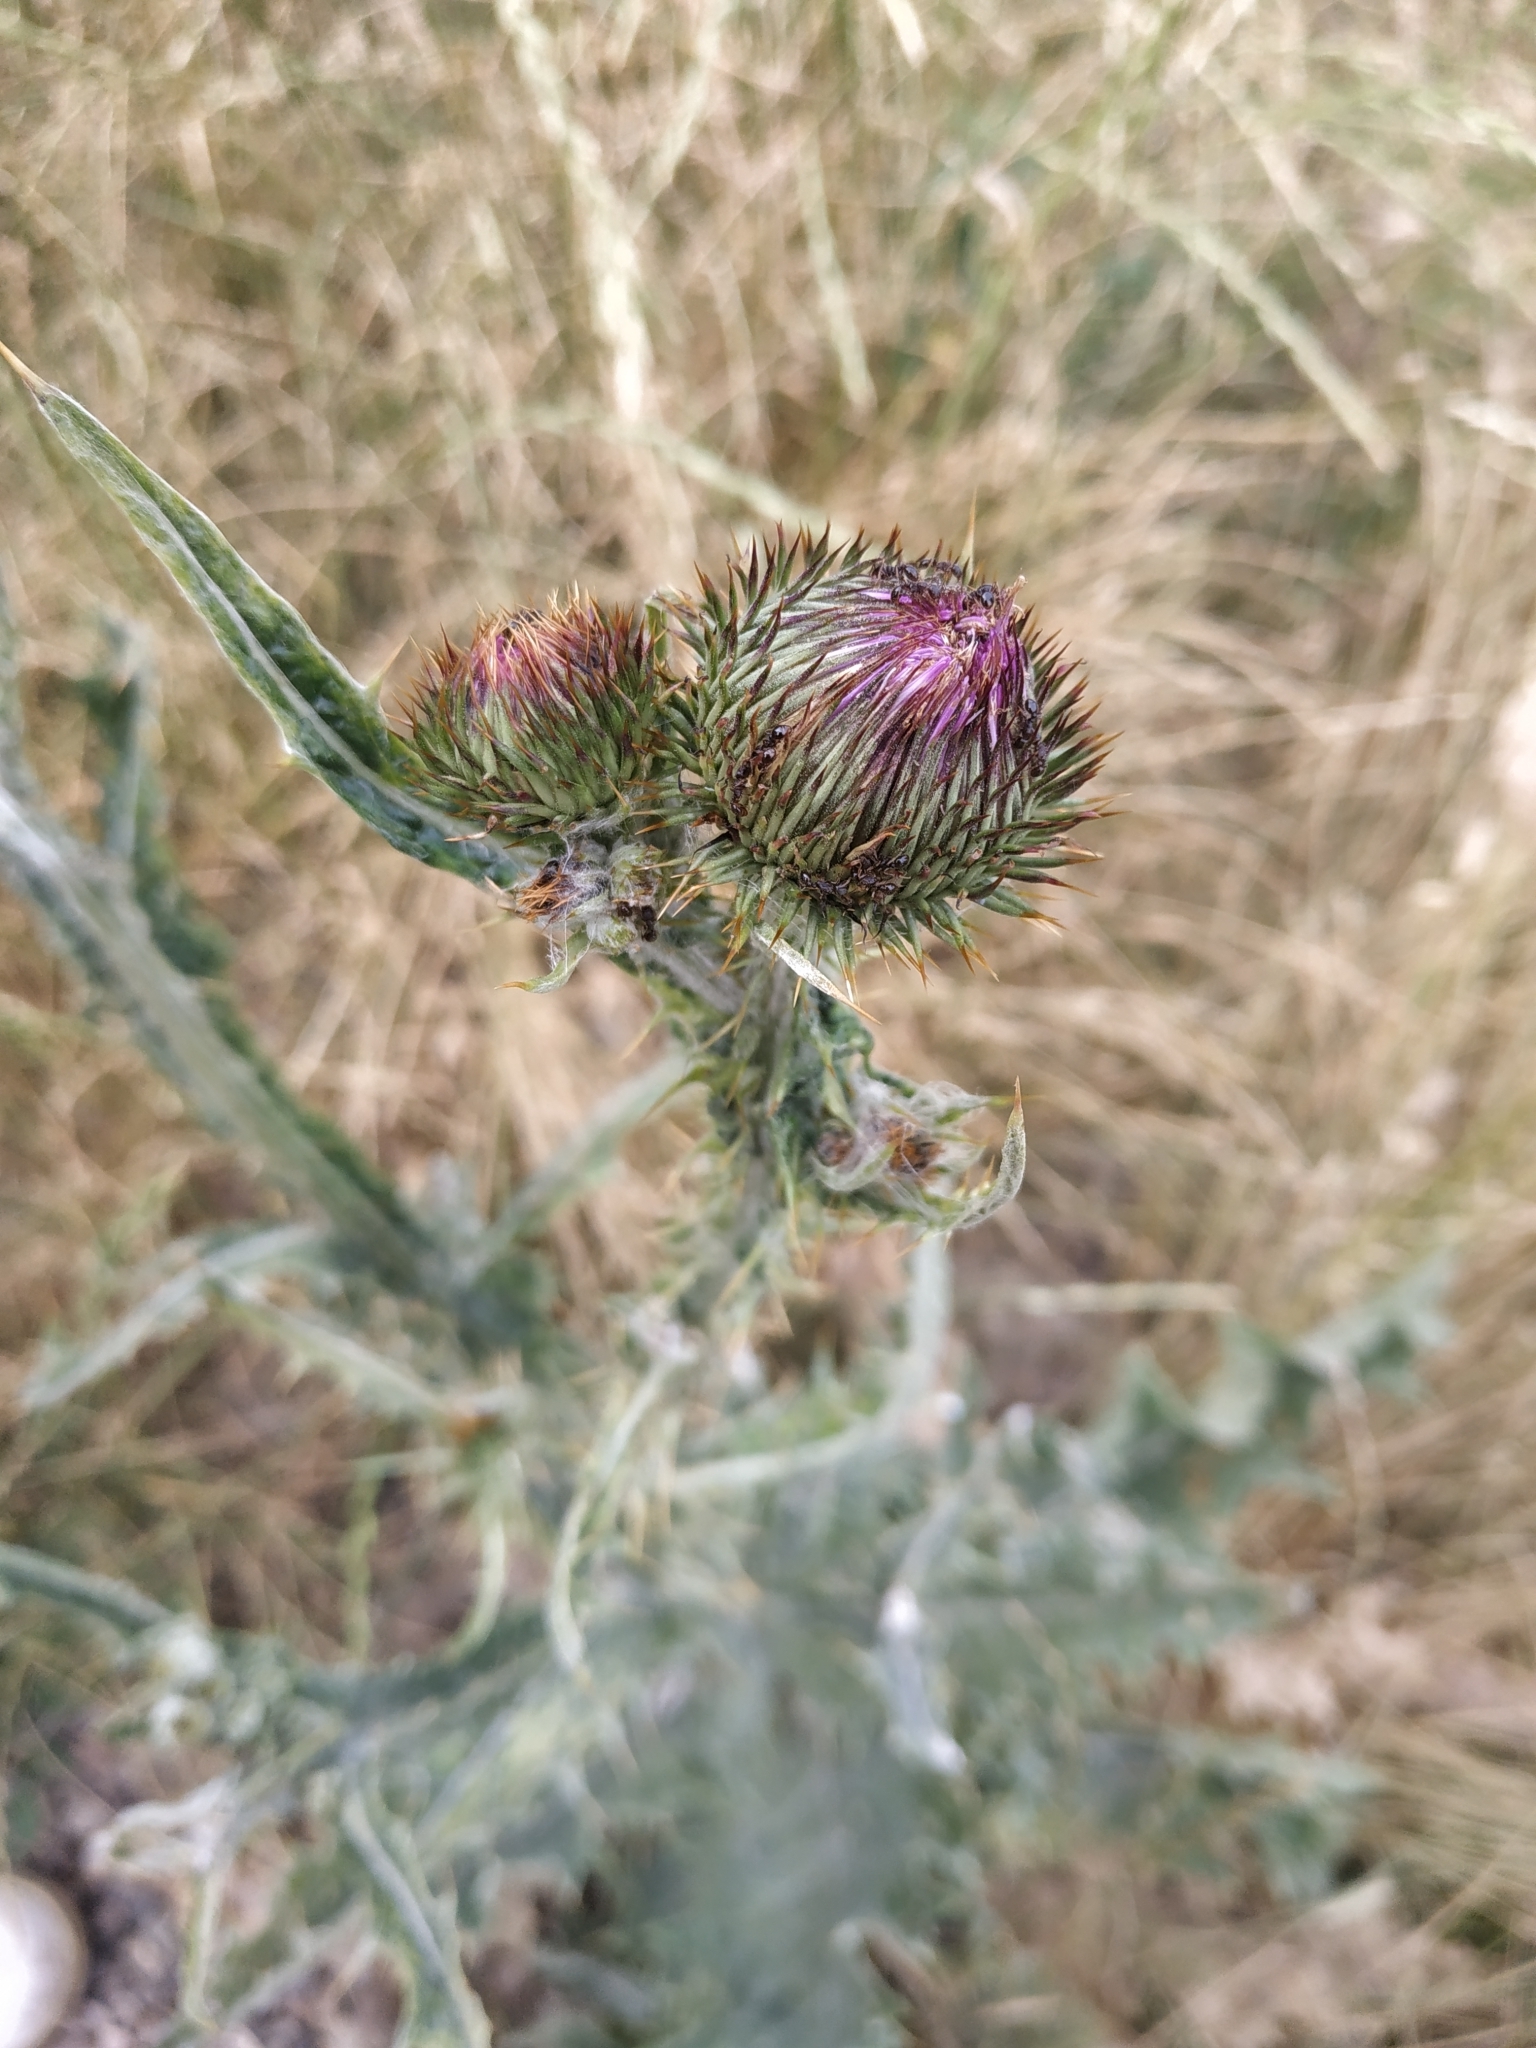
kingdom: Plantae
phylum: Tracheophyta
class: Magnoliopsida
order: Asterales
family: Asteraceae
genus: Onopordum
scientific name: Onopordum acanthium
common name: Scotch thistle
